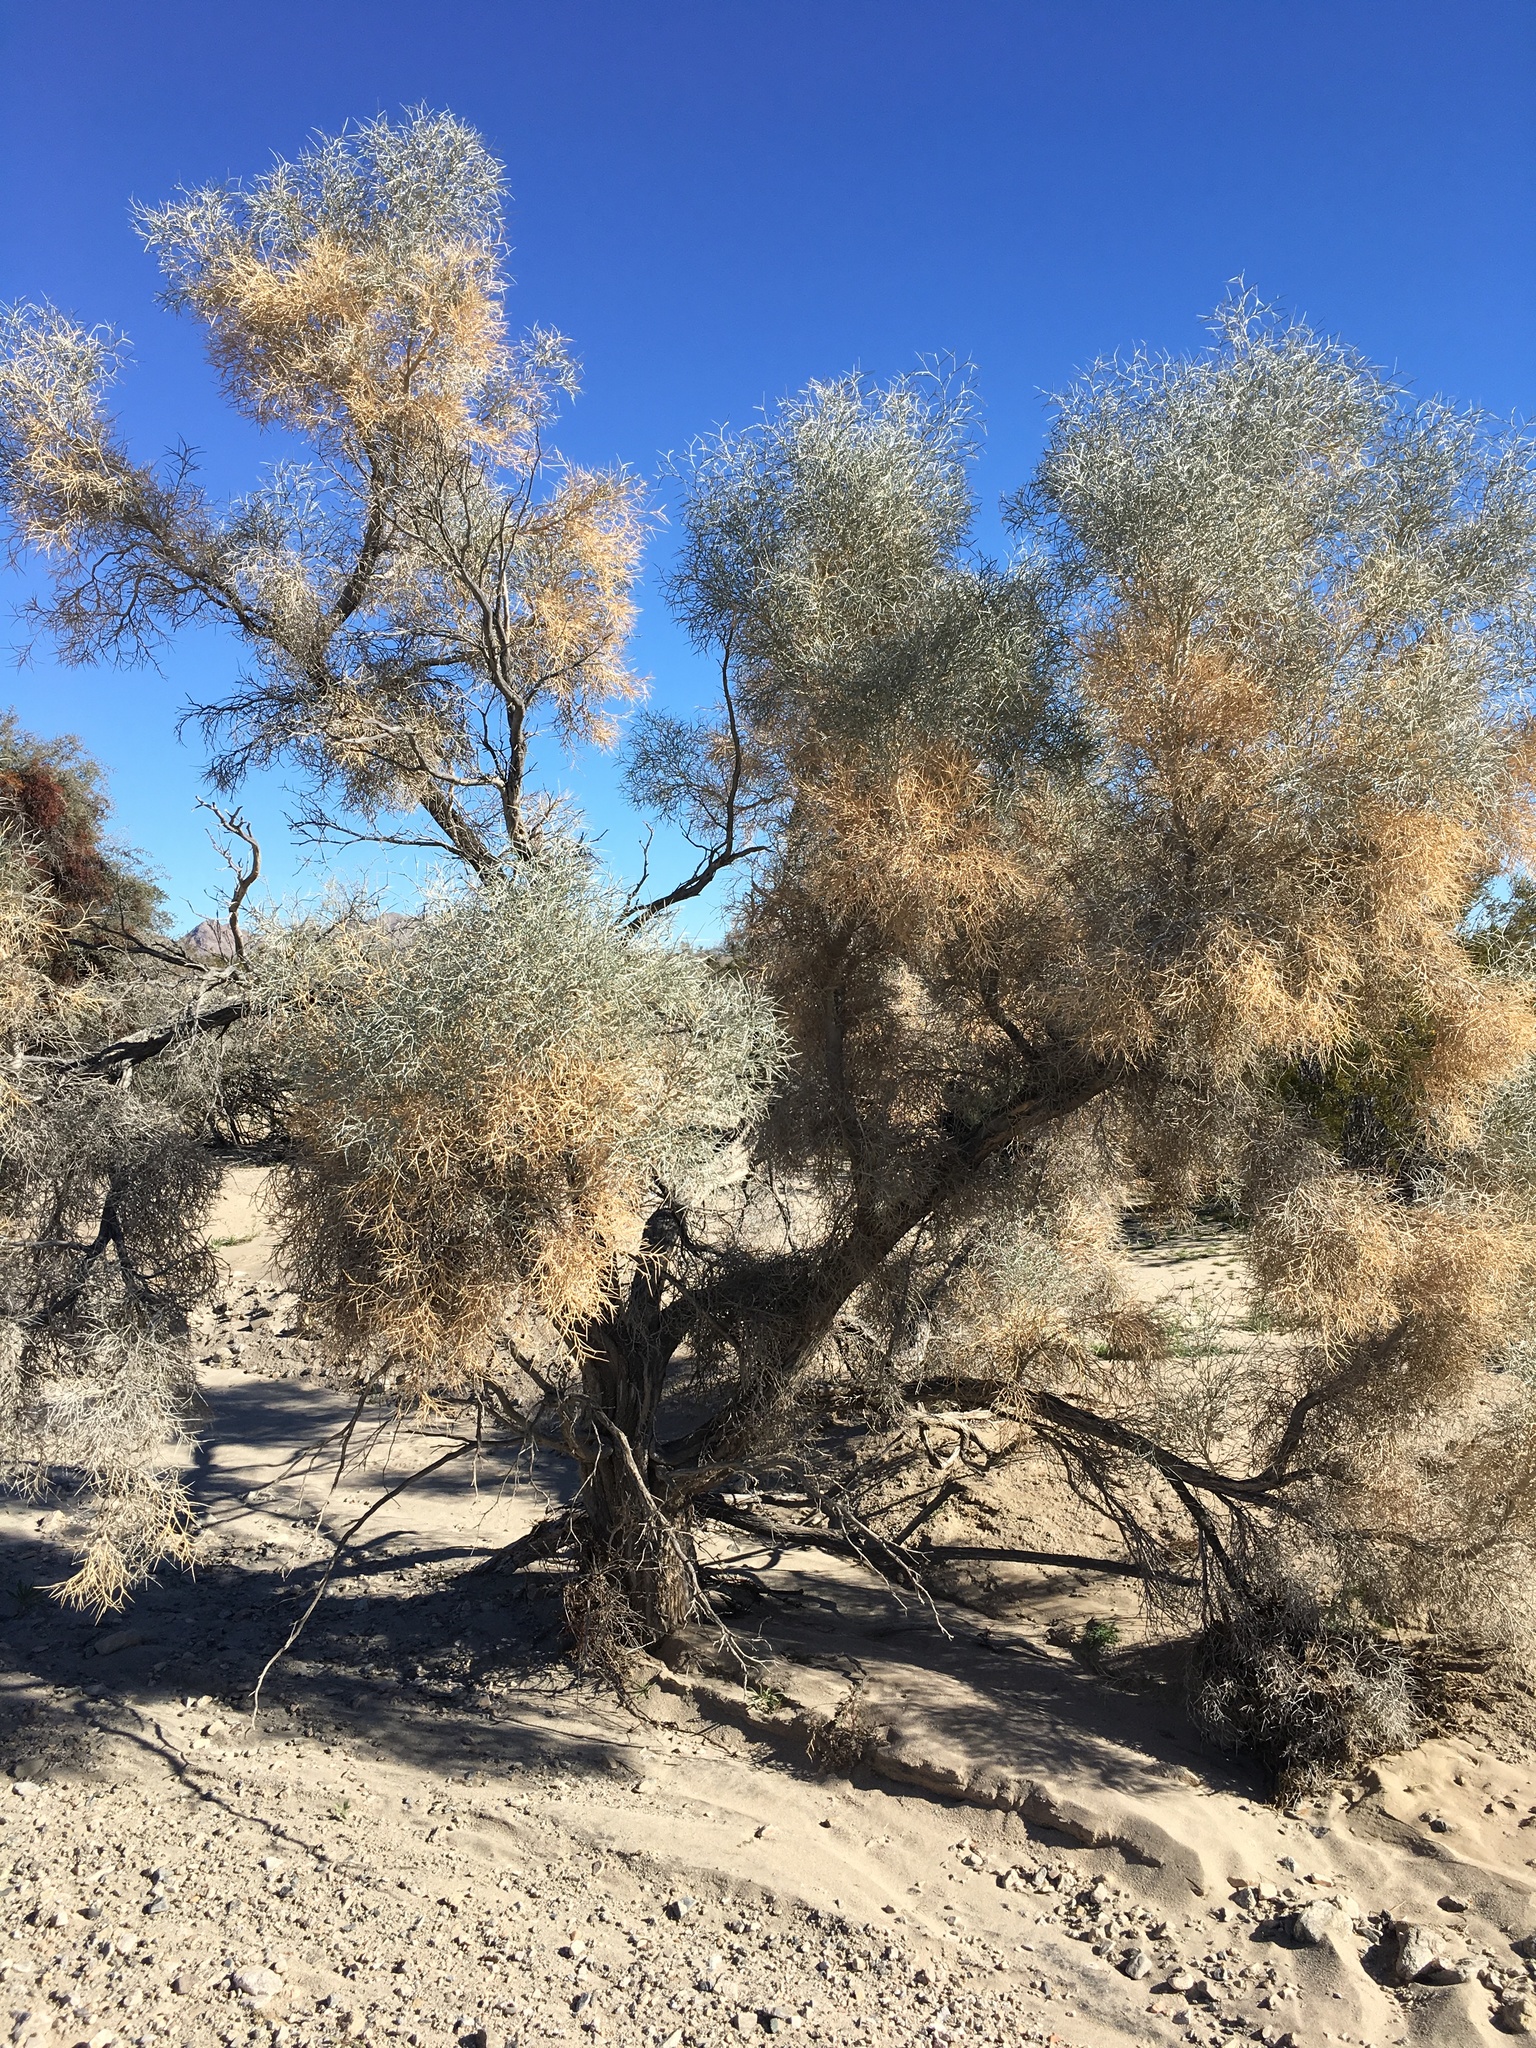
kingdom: Plantae
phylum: Tracheophyta
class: Magnoliopsida
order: Fabales
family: Fabaceae
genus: Psorothamnus
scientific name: Psorothamnus spinosus
